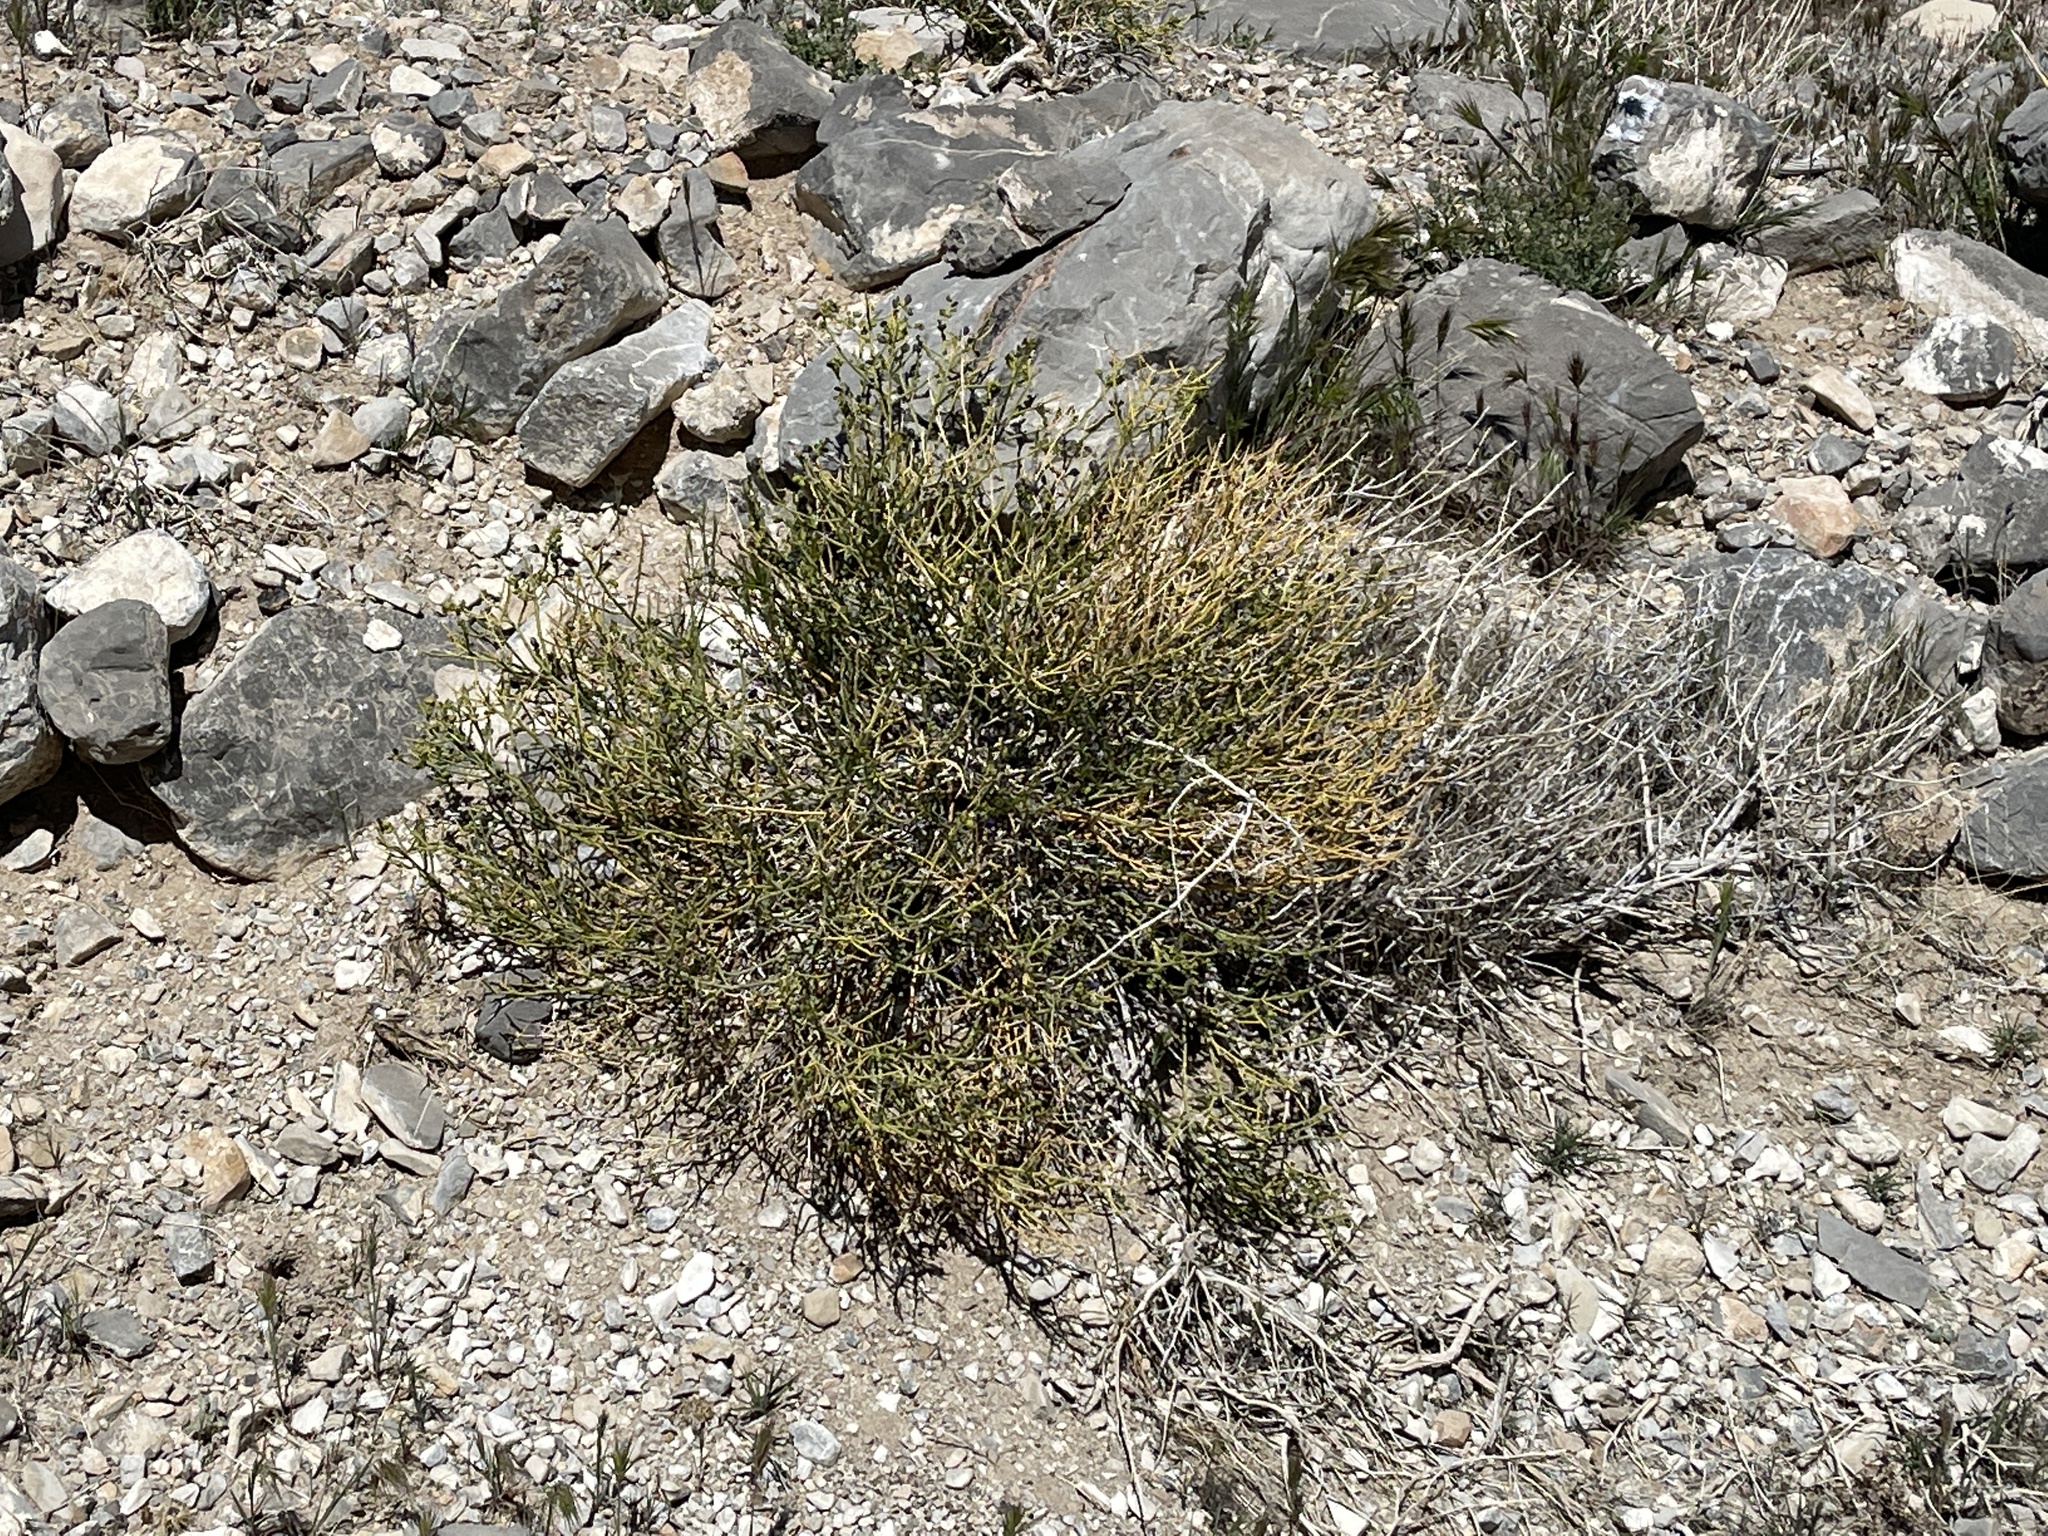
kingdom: Plantae
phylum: Tracheophyta
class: Magnoliopsida
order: Sapindales
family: Rutaceae
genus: Thamnosma
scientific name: Thamnosma montana
